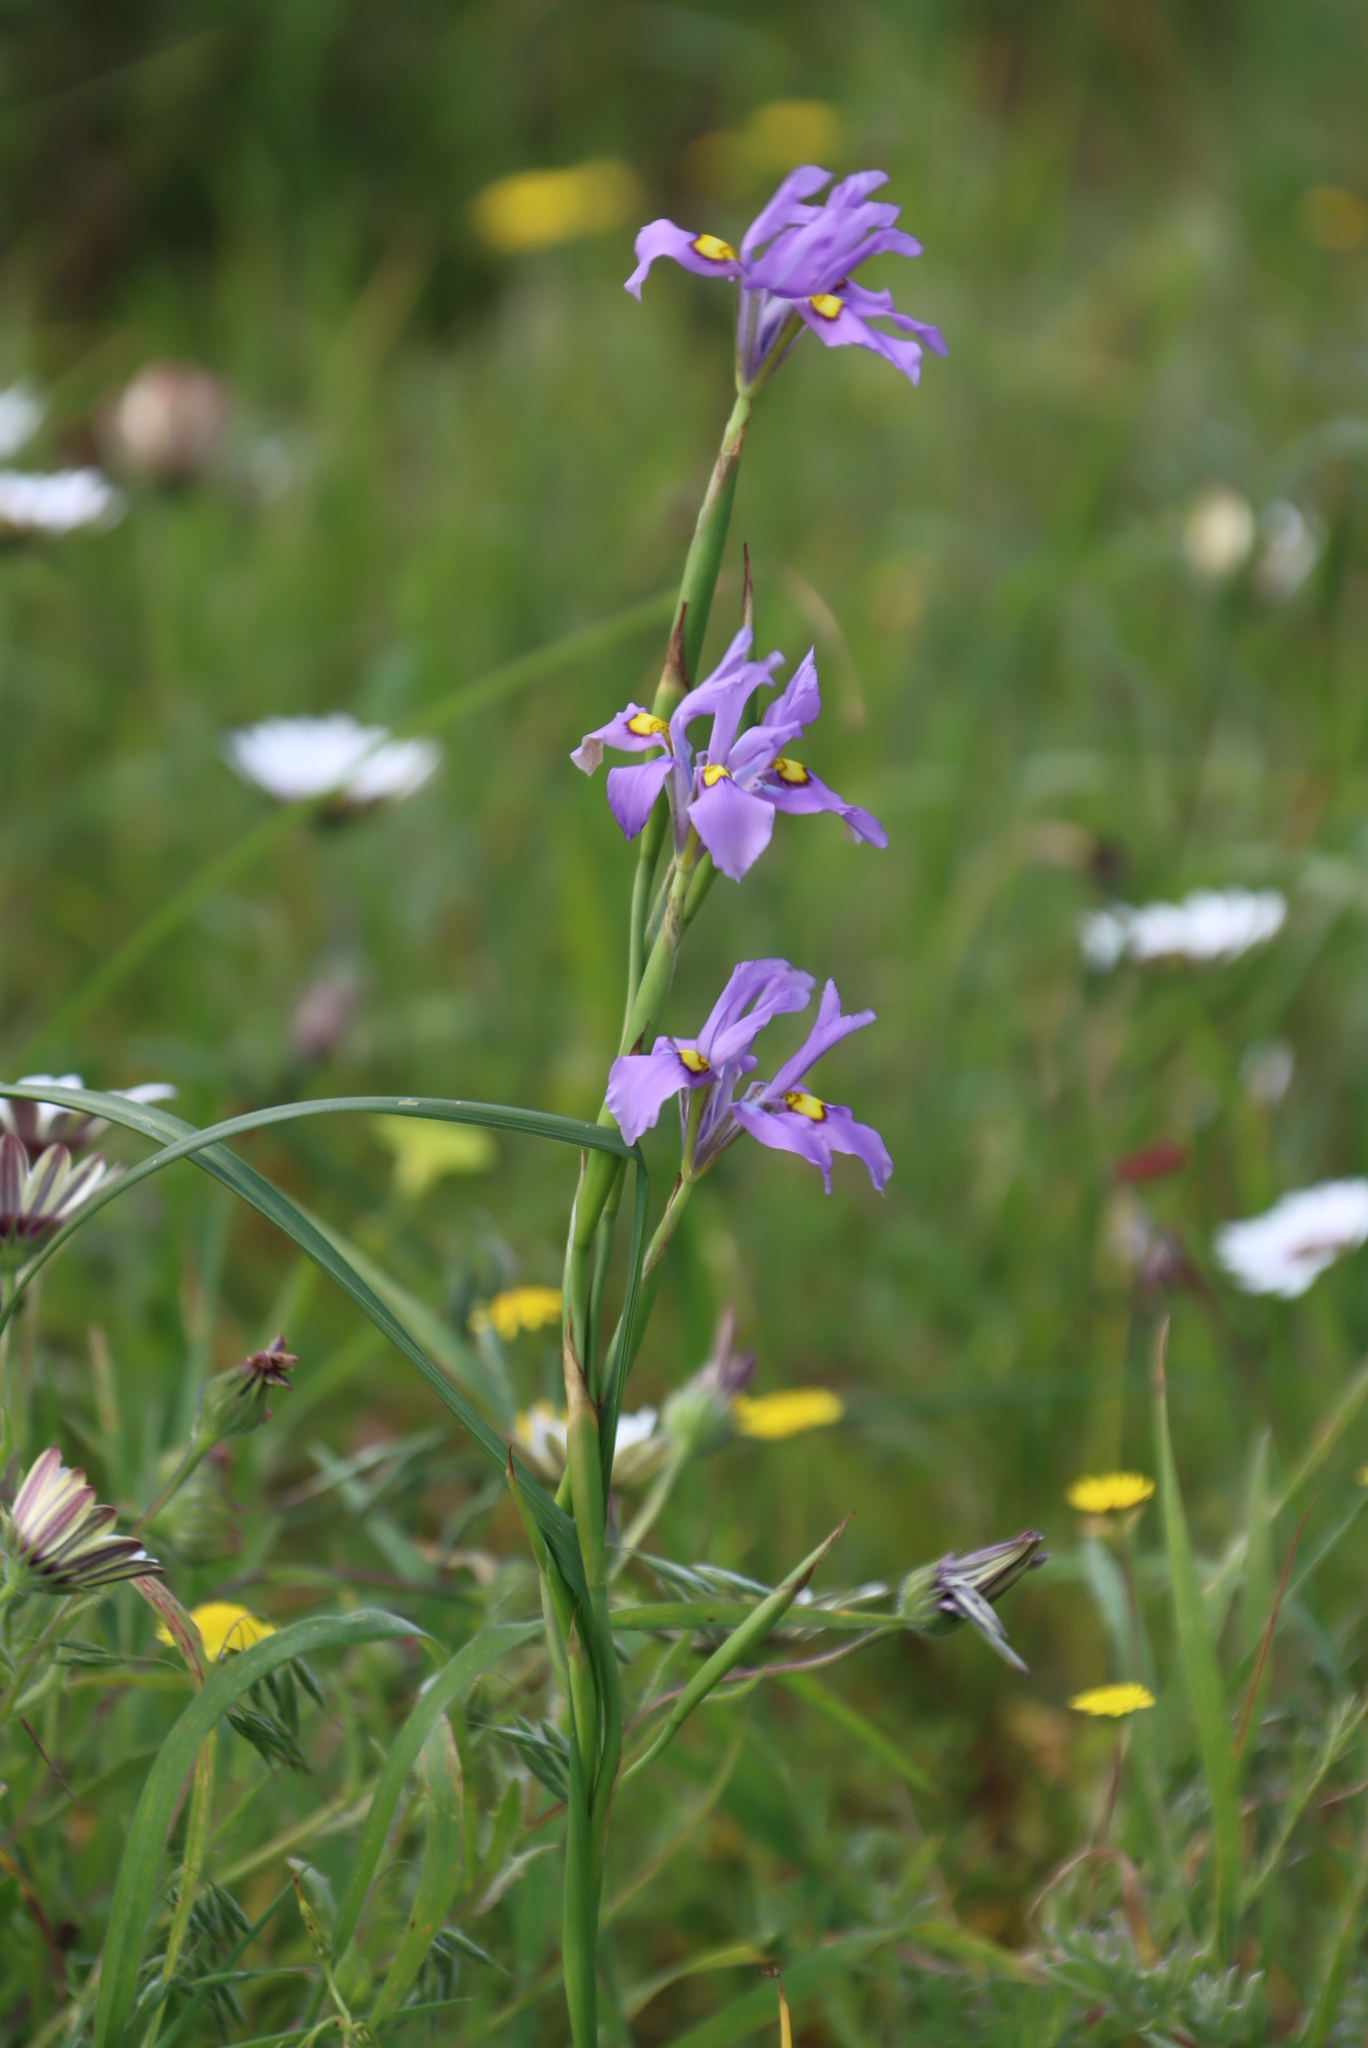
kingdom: Plantae
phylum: Tracheophyta
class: Liliopsida
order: Asparagales
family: Iridaceae
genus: Moraea
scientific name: Moraea fugax
